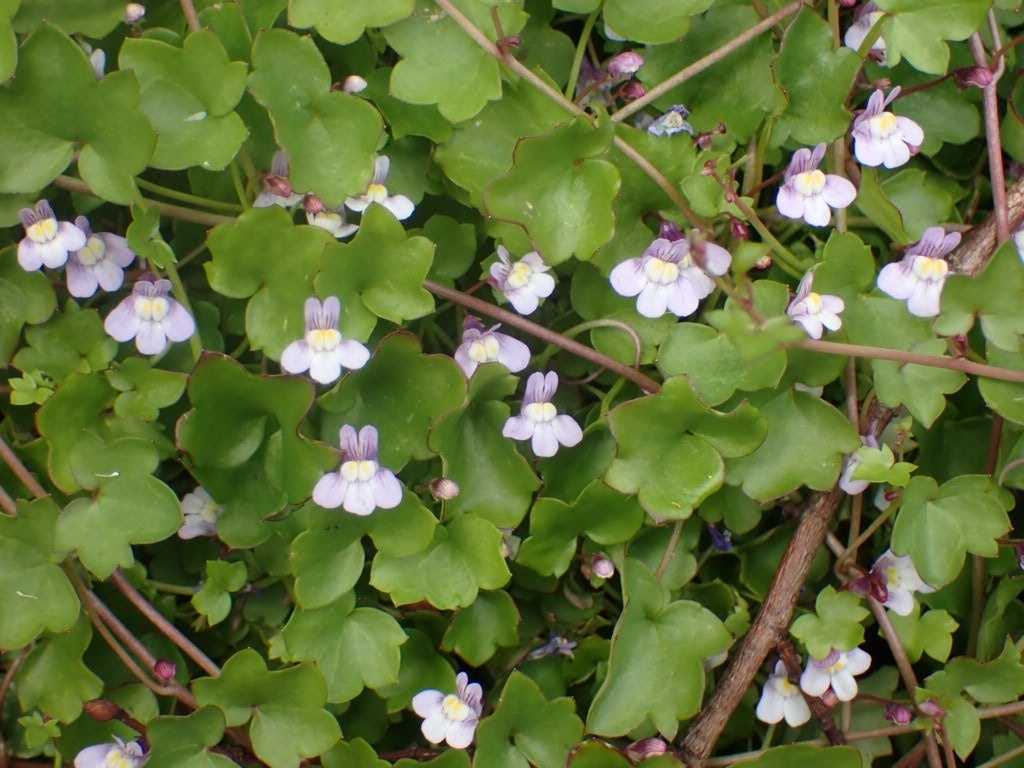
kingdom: Plantae
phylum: Tracheophyta
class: Magnoliopsida
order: Lamiales
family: Plantaginaceae
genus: Cymbalaria
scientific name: Cymbalaria muralis
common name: Ivy-leaved toadflax
